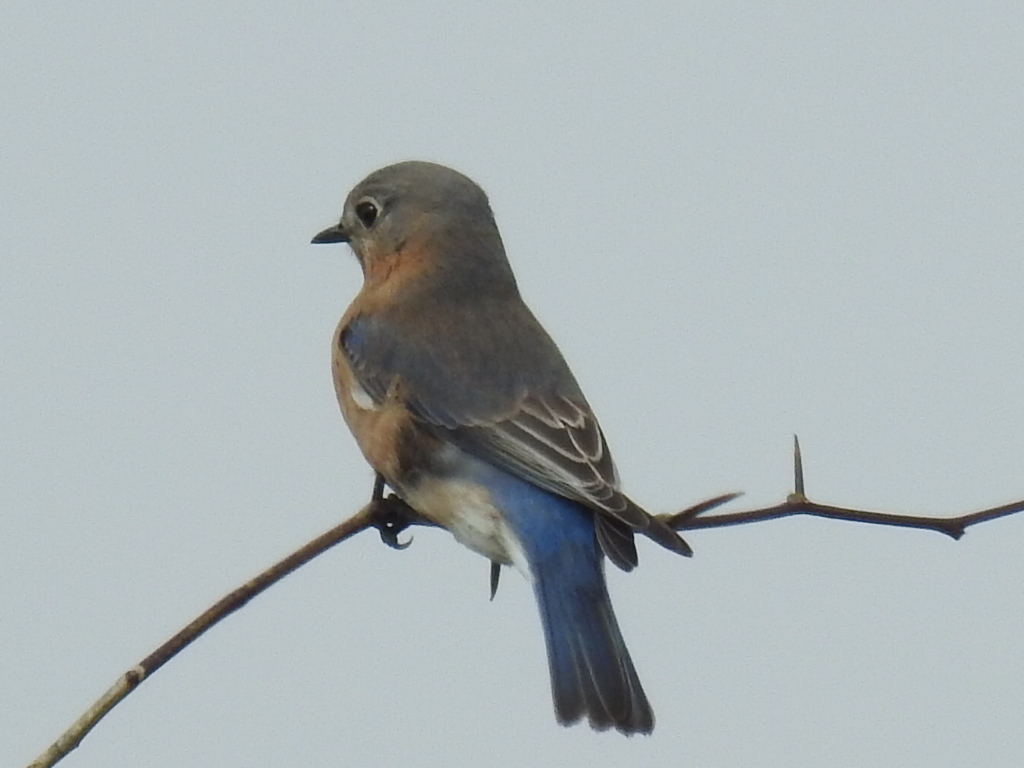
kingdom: Animalia
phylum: Chordata
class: Aves
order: Passeriformes
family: Turdidae
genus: Sialia
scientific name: Sialia sialis
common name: Eastern bluebird
